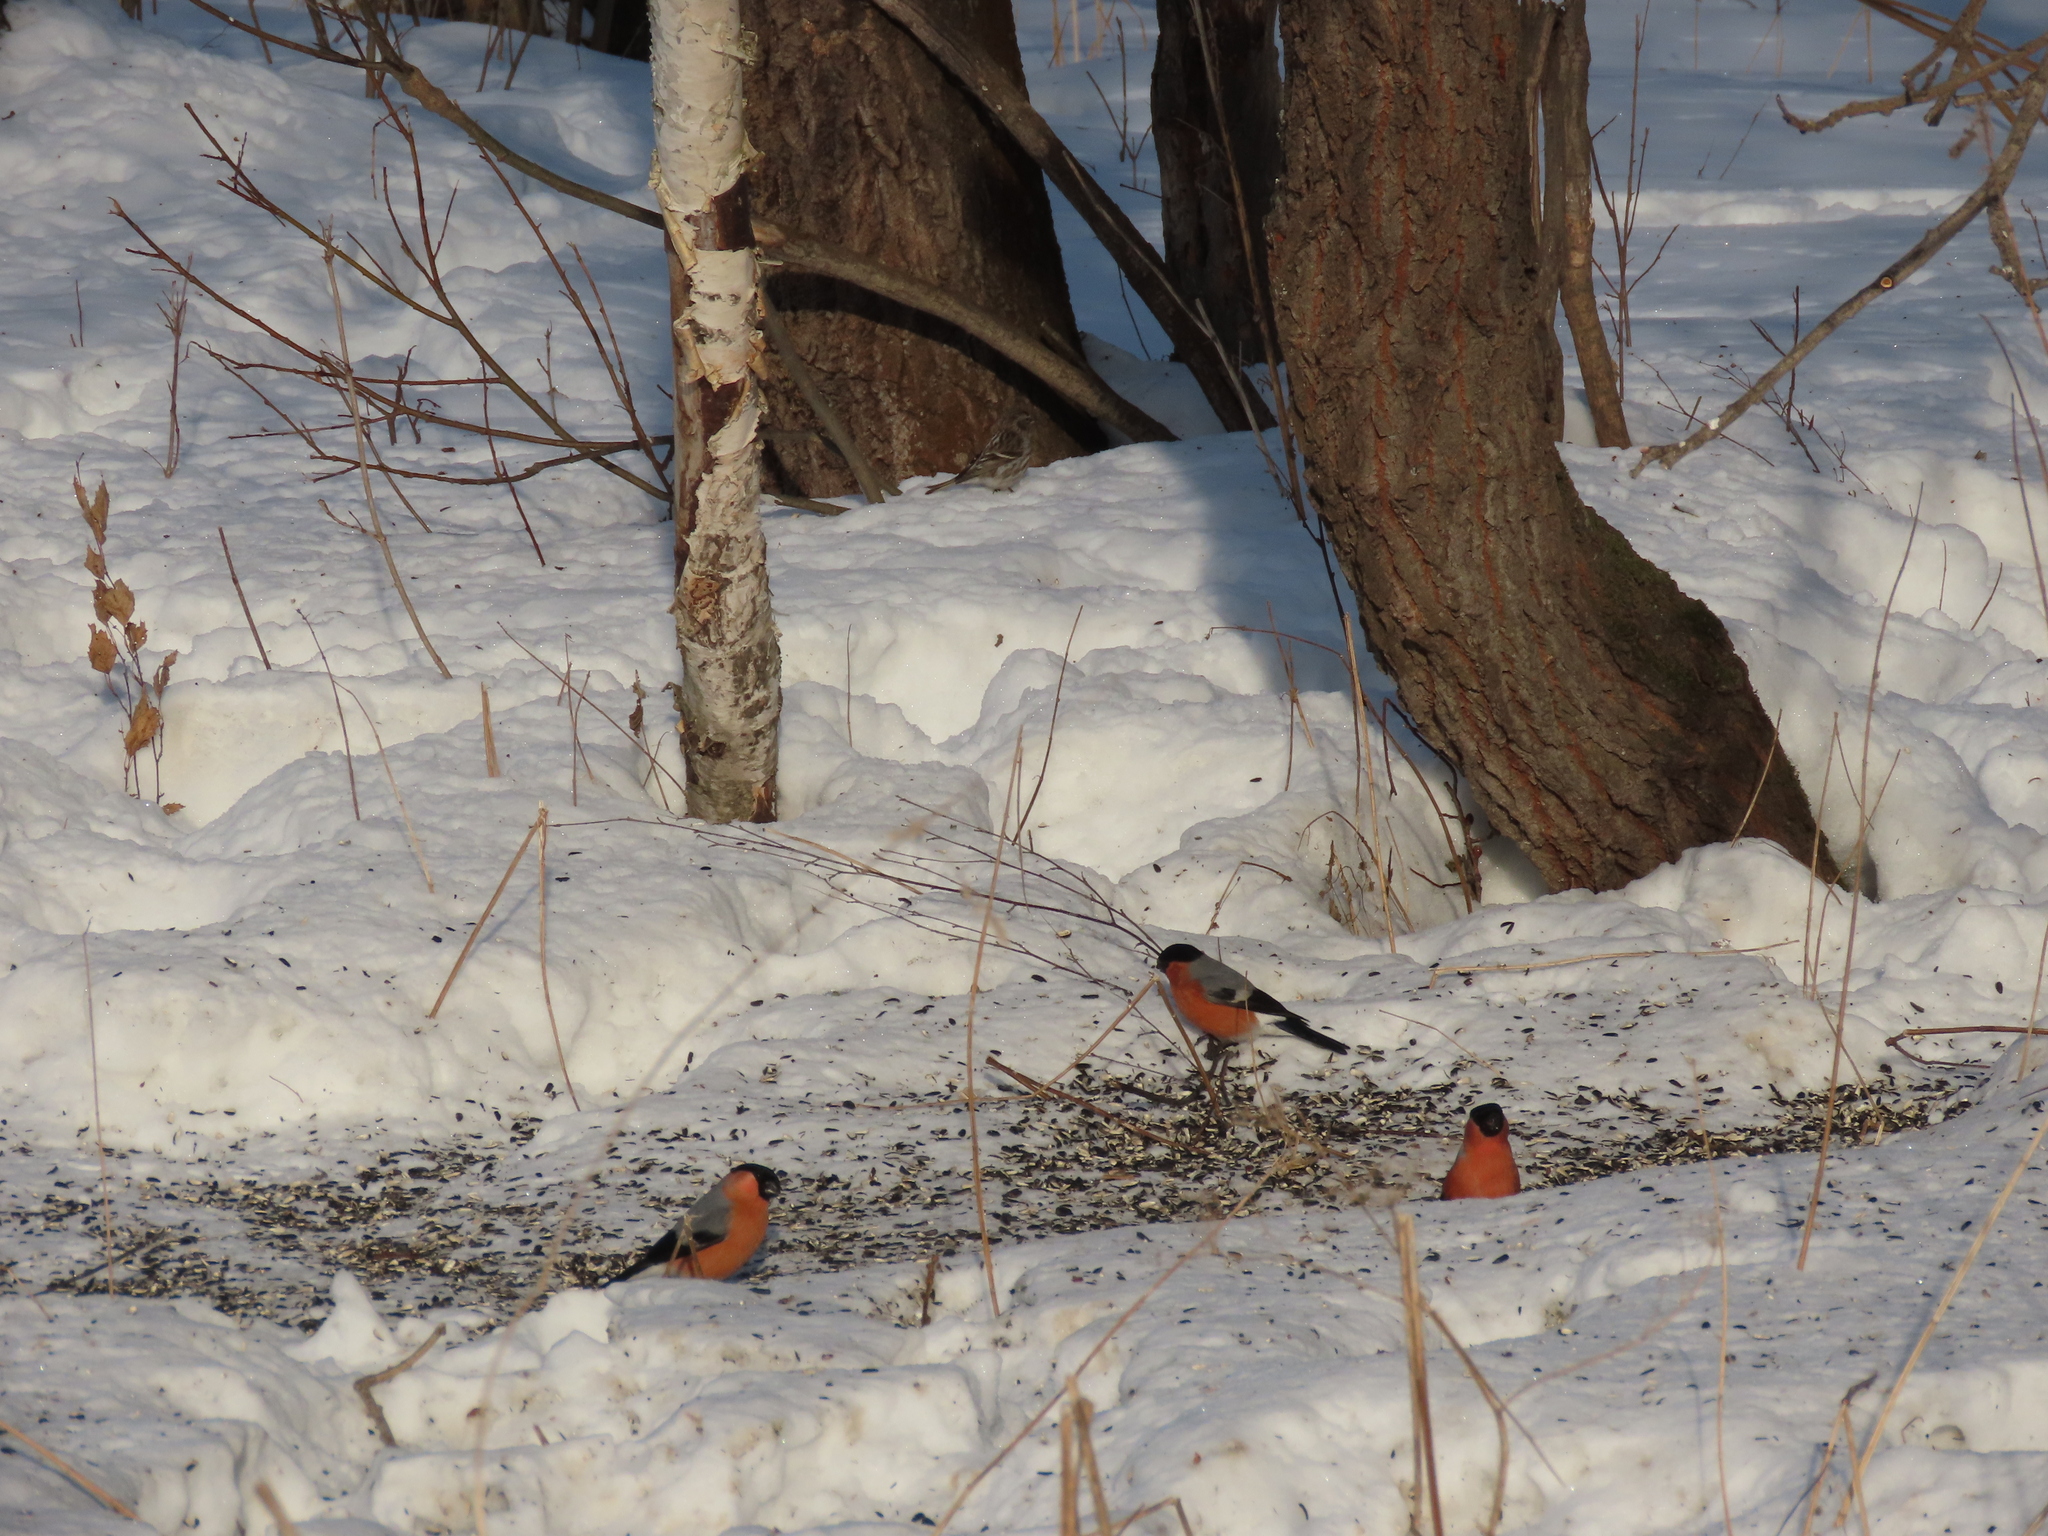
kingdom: Animalia
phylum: Chordata
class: Aves
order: Passeriformes
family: Fringillidae
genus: Pyrrhula
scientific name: Pyrrhula pyrrhula
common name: Eurasian bullfinch
